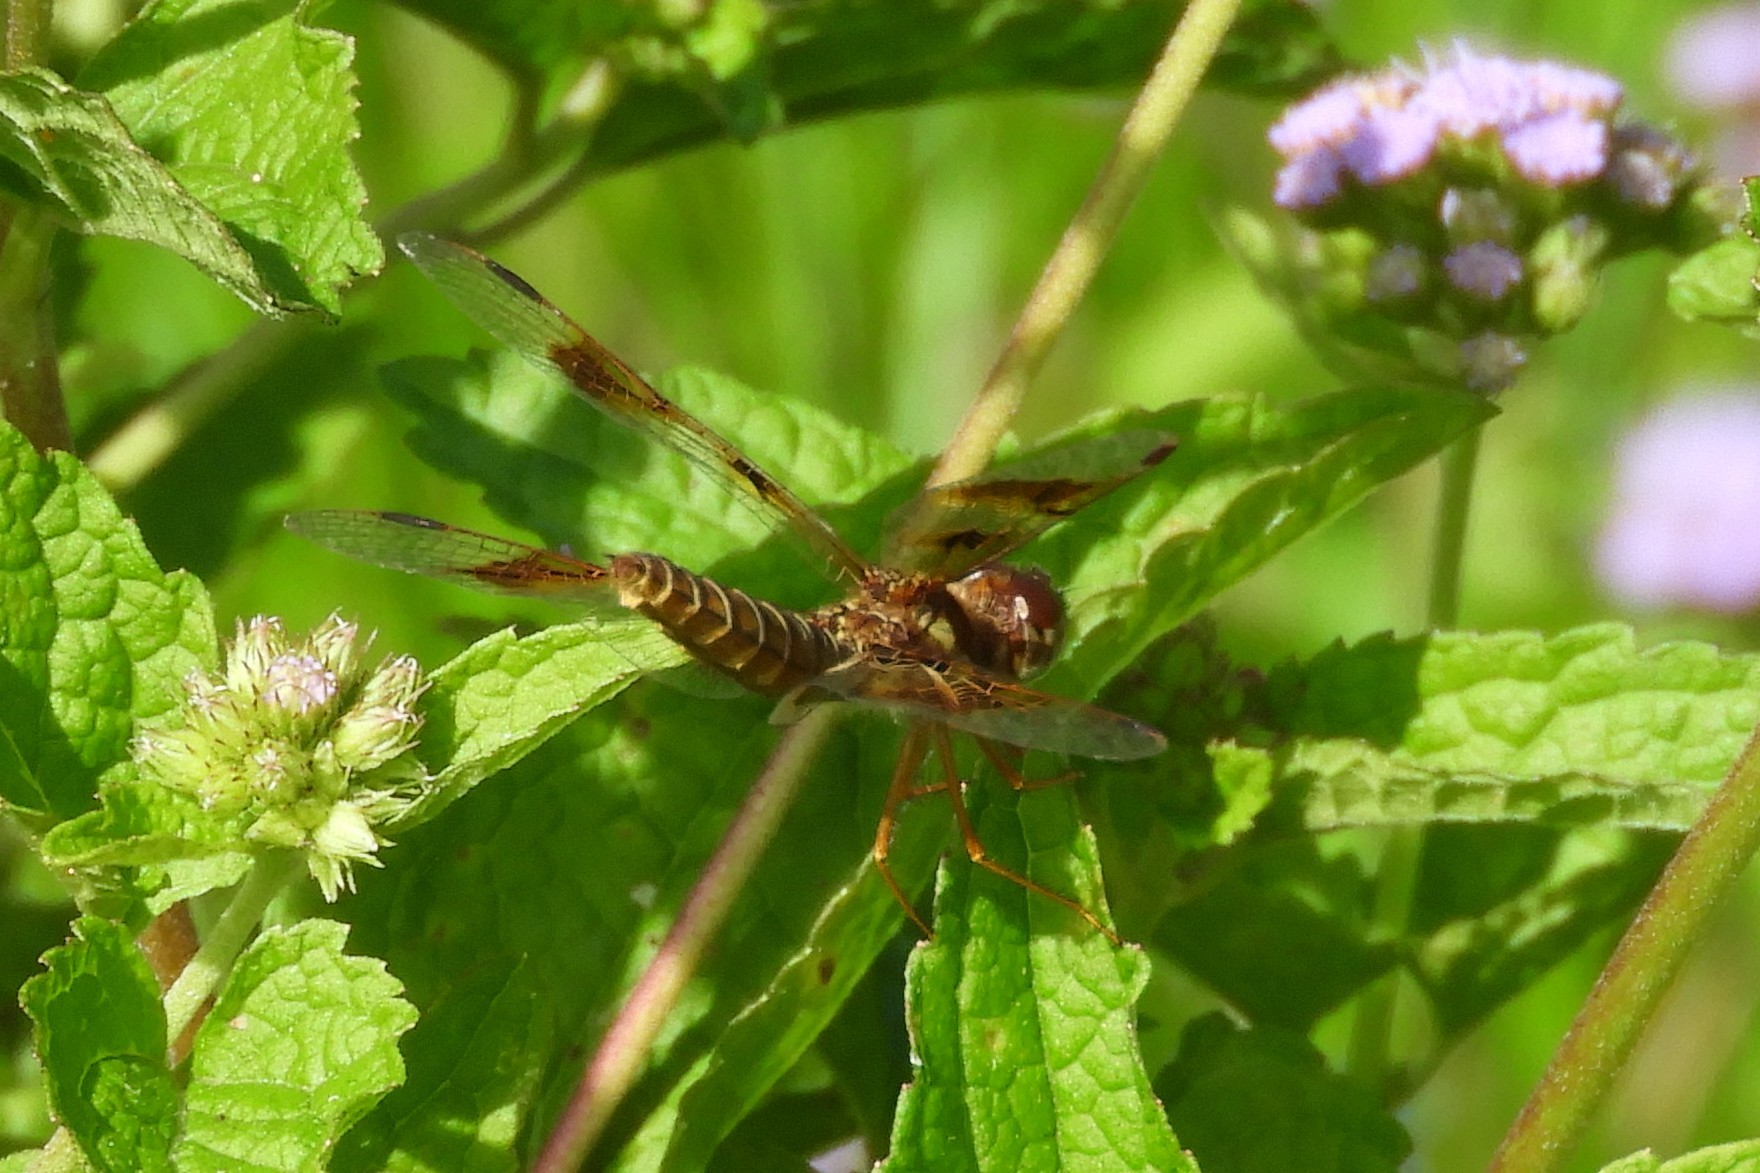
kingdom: Animalia
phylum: Arthropoda
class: Insecta
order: Odonata
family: Libellulidae
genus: Perithemis
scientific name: Perithemis tenera
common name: Eastern amberwing
